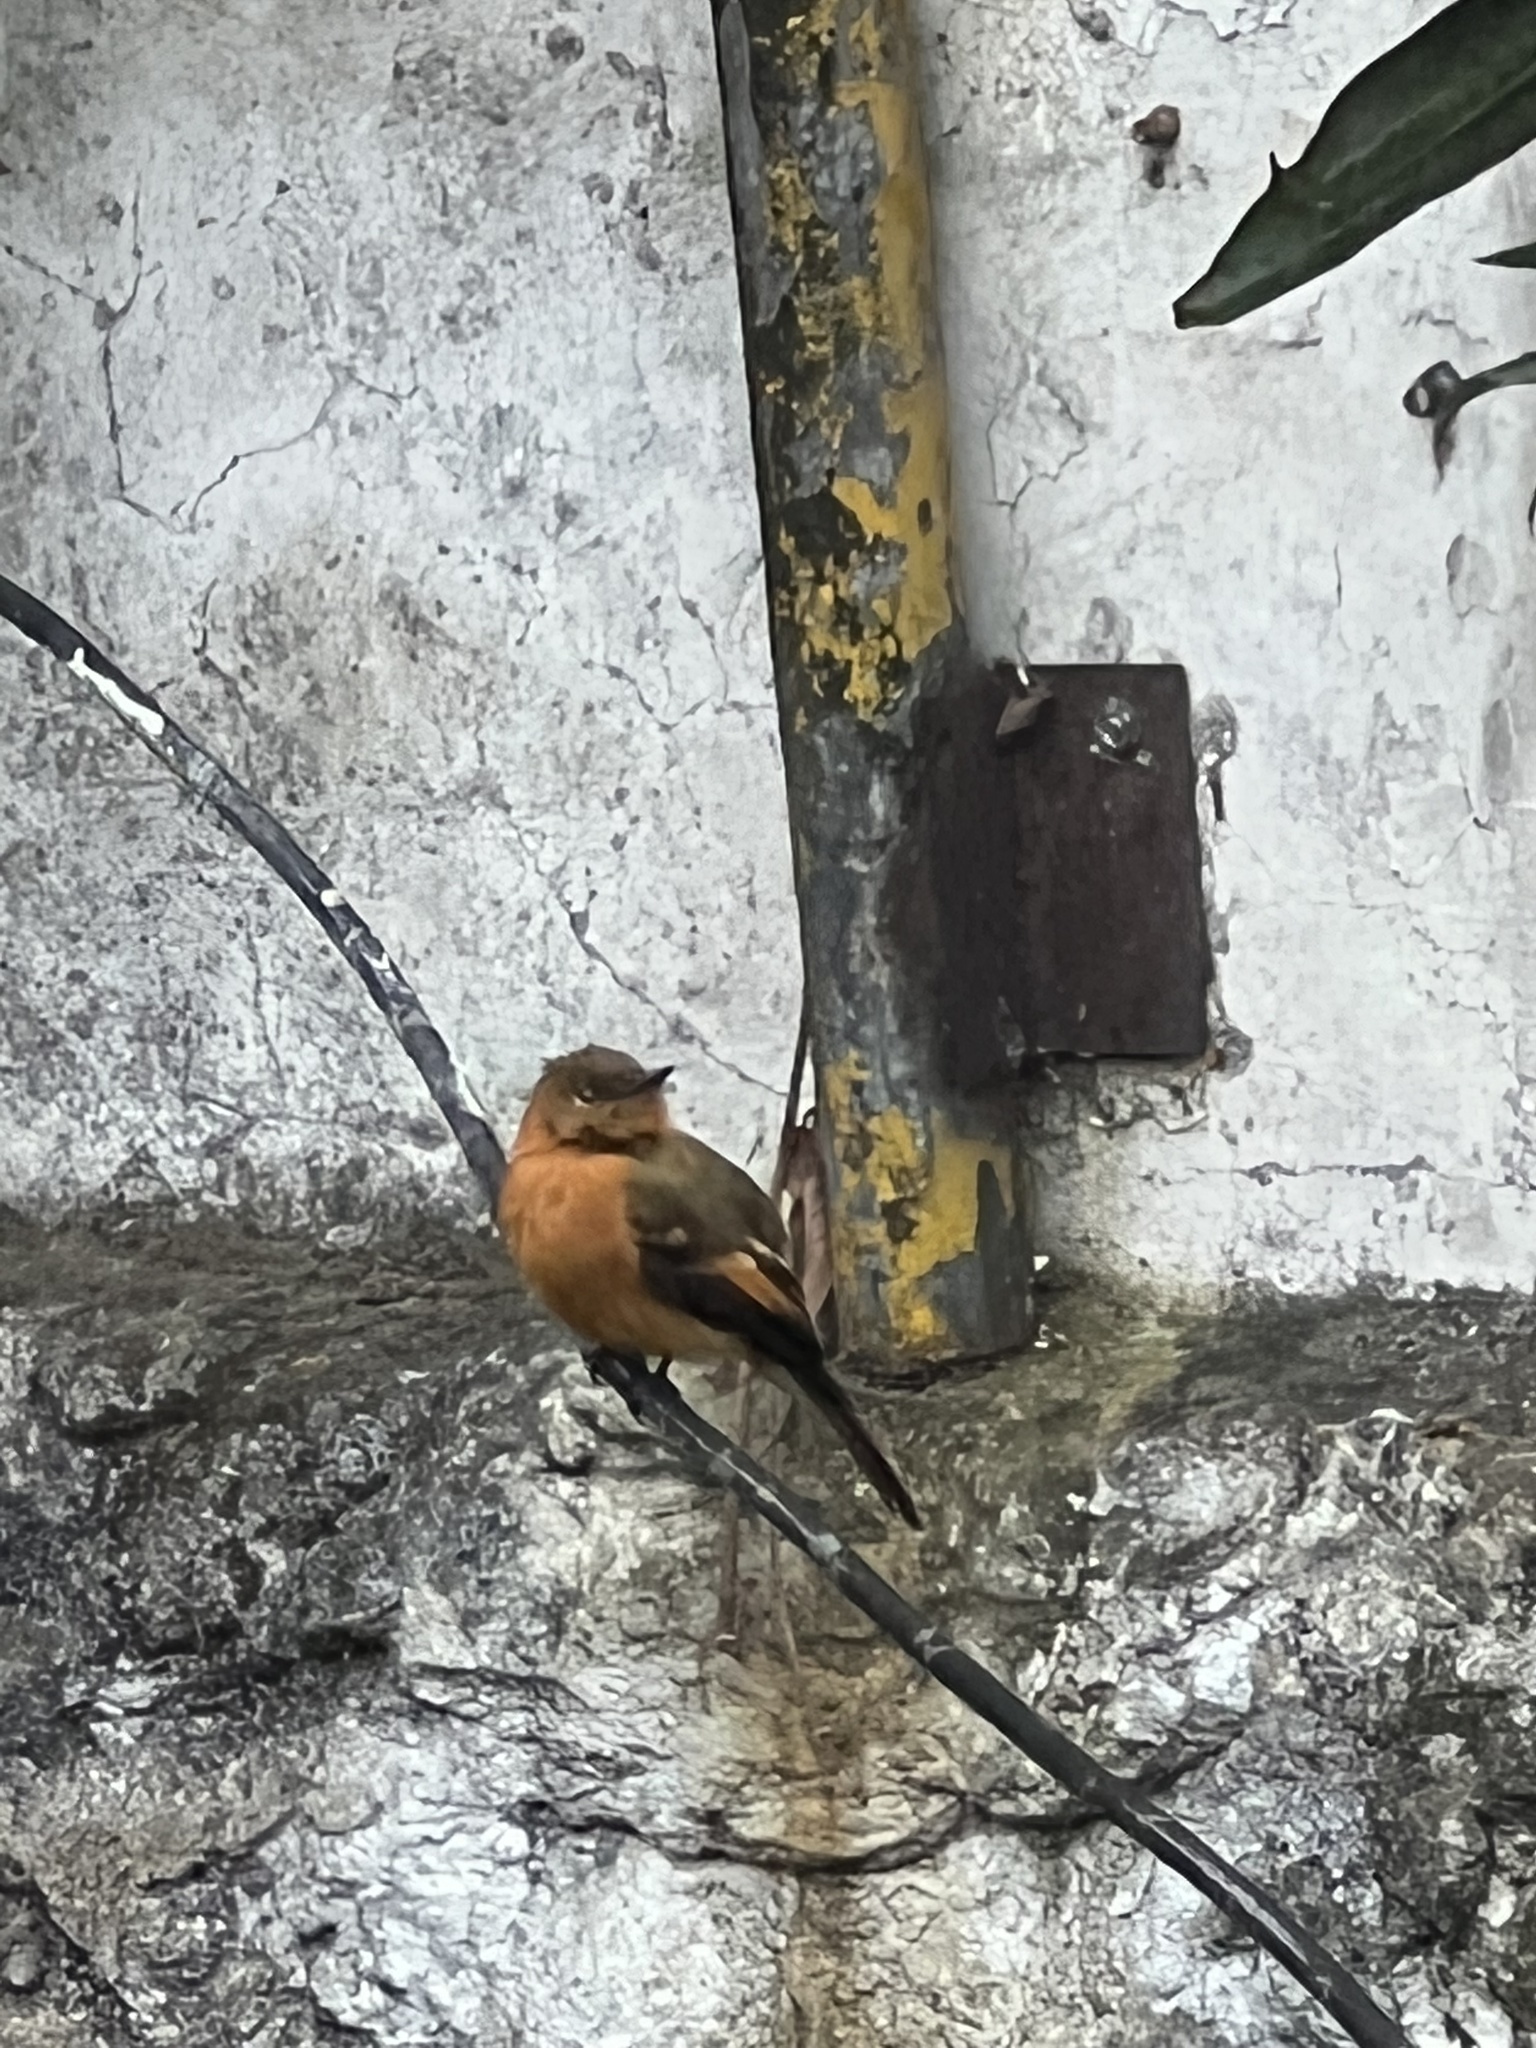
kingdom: Animalia
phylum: Chordata
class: Aves
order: Passeriformes
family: Tyrannidae
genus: Pyrrhomyias
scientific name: Pyrrhomyias cinnamomeus
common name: Cinnamon flycatcher
